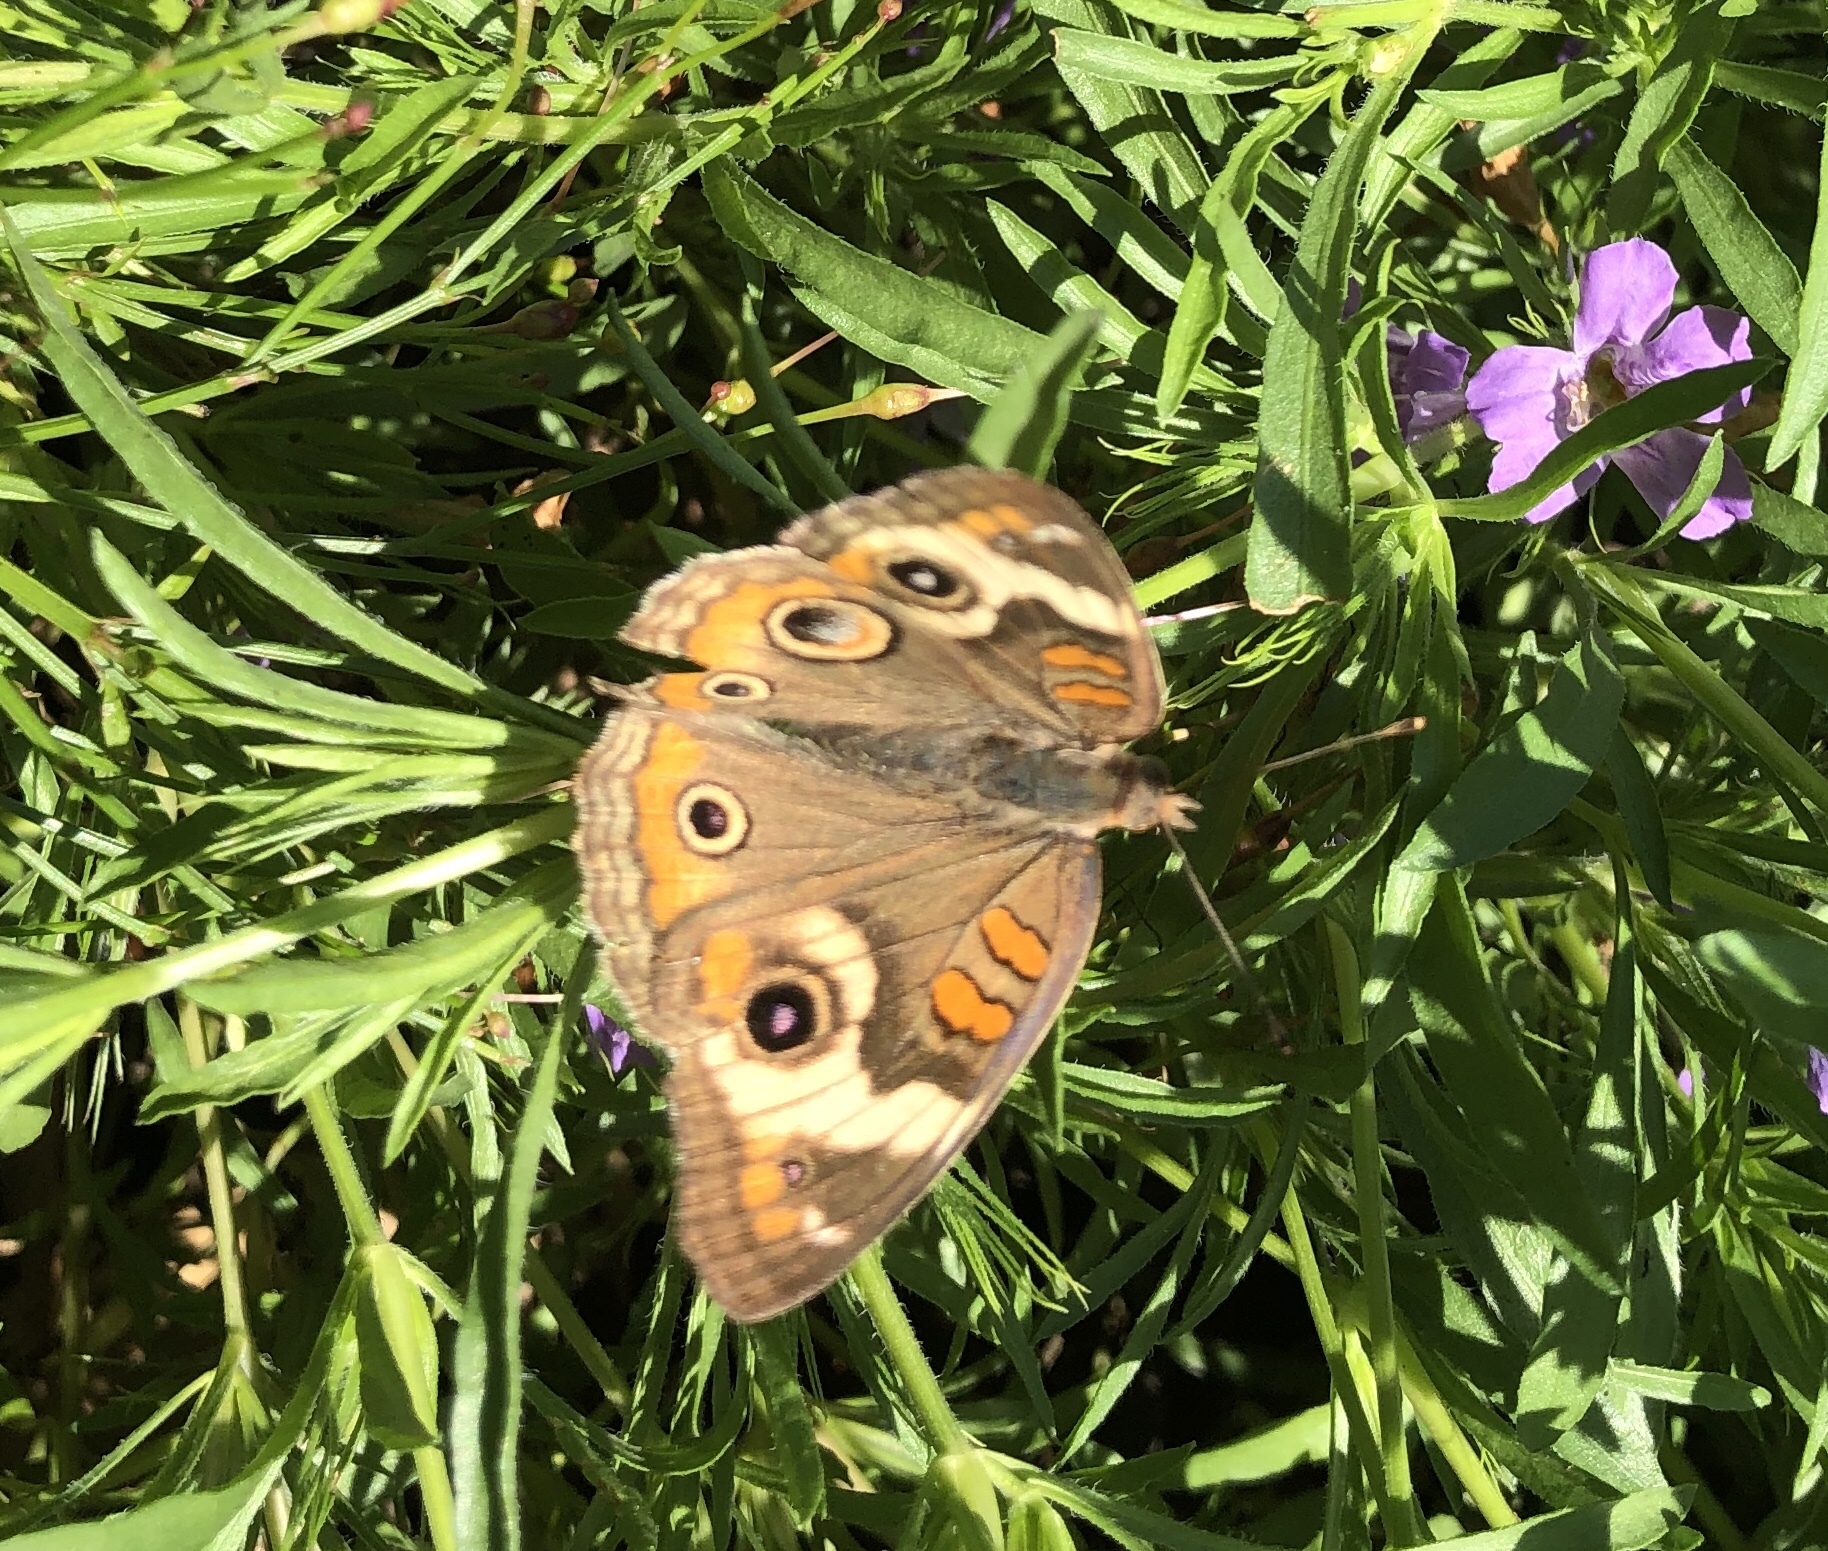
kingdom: Animalia
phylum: Arthropoda
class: Insecta
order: Lepidoptera
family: Nymphalidae
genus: Junonia
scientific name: Junonia coenia
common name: Common buckeye
